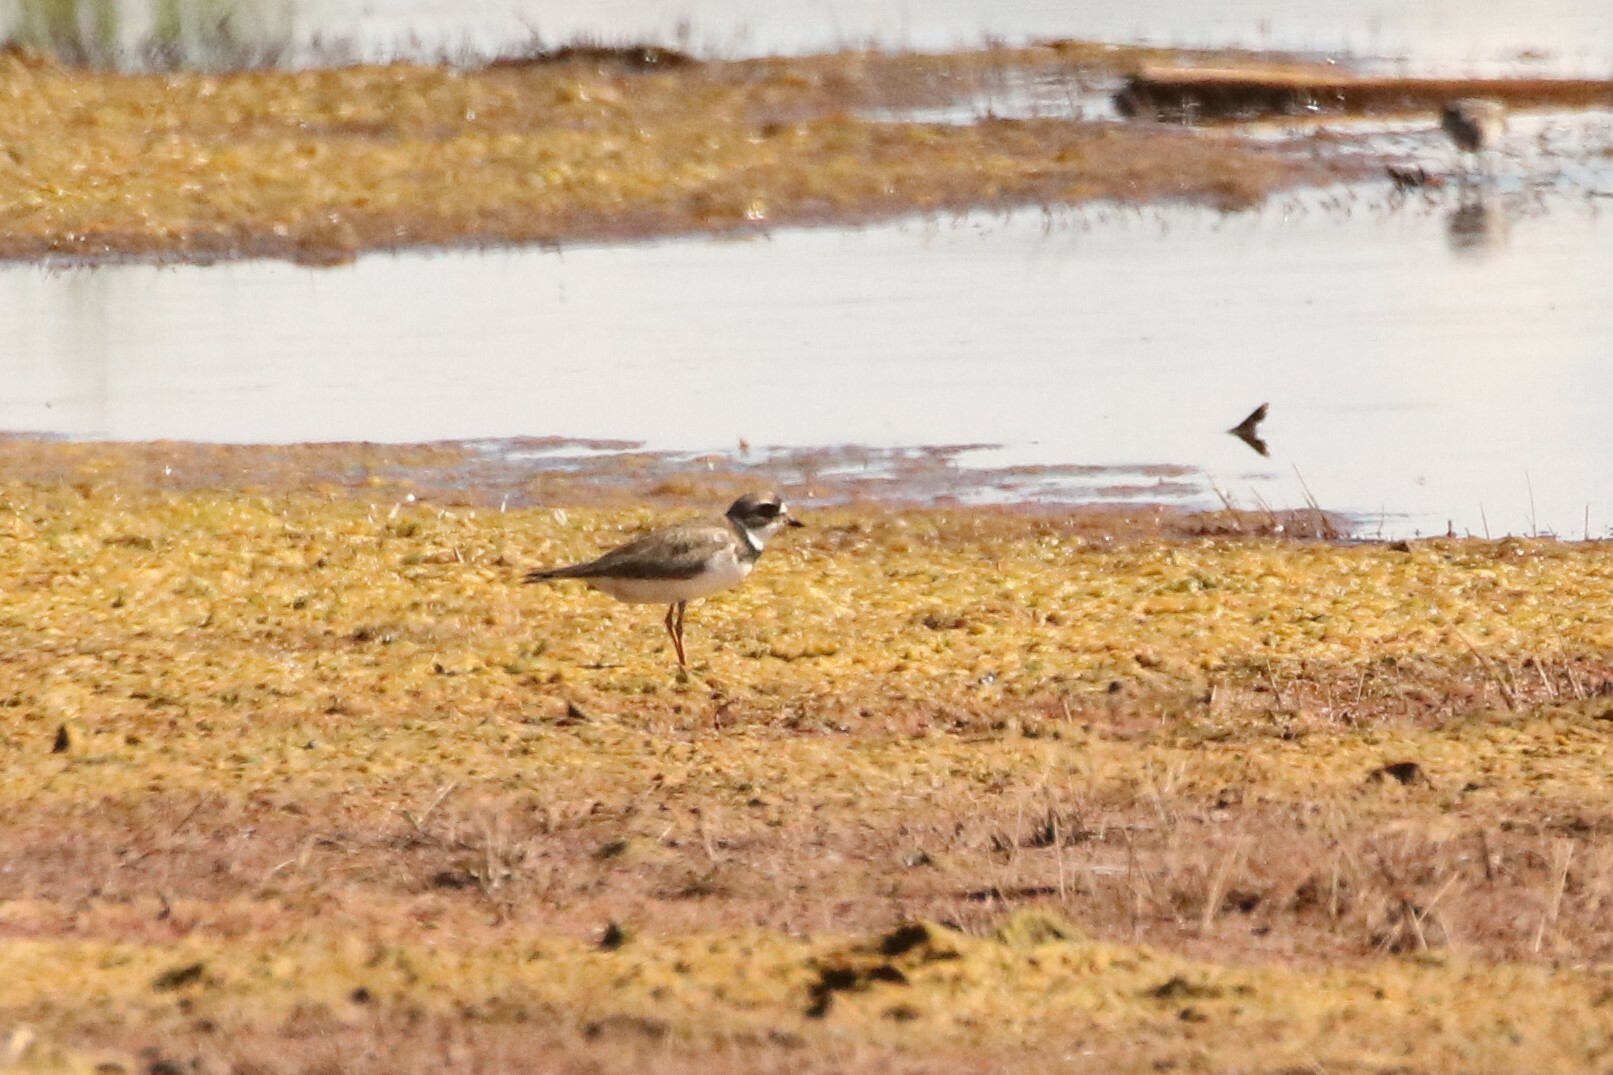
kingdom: Animalia
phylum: Chordata
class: Aves
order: Charadriiformes
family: Charadriidae
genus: Charadrius
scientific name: Charadrius semipalmatus
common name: Semipalmated plover
